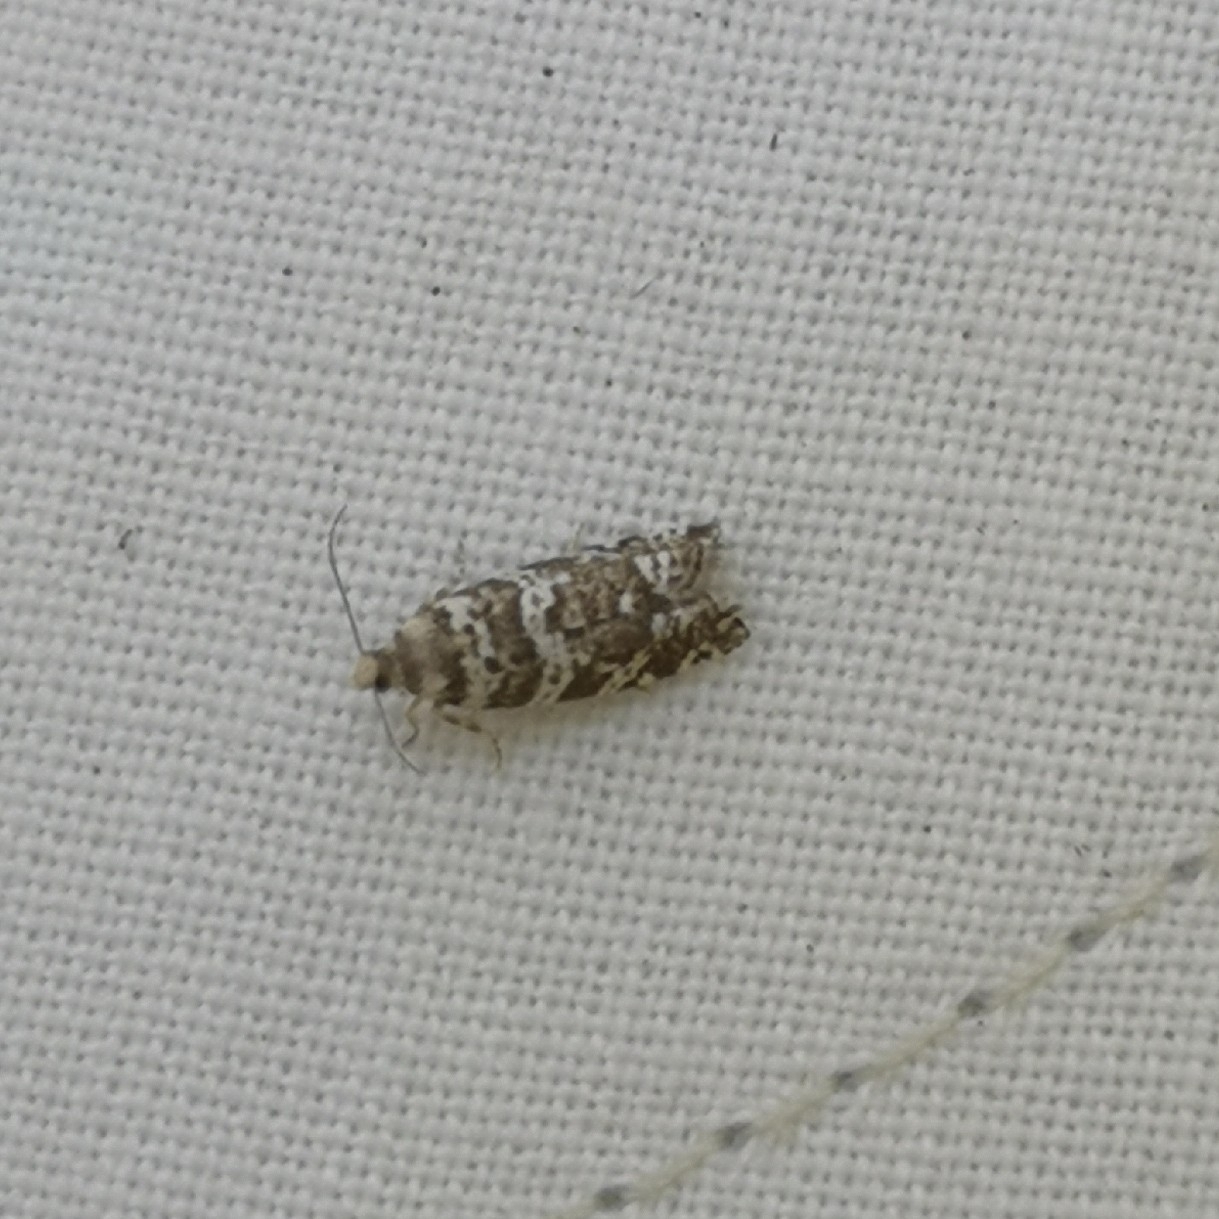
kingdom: Animalia
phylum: Arthropoda
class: Insecta
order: Lepidoptera
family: Tortricidae
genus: Epinotia
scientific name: Epinotia tedella
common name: Common spruce bell
